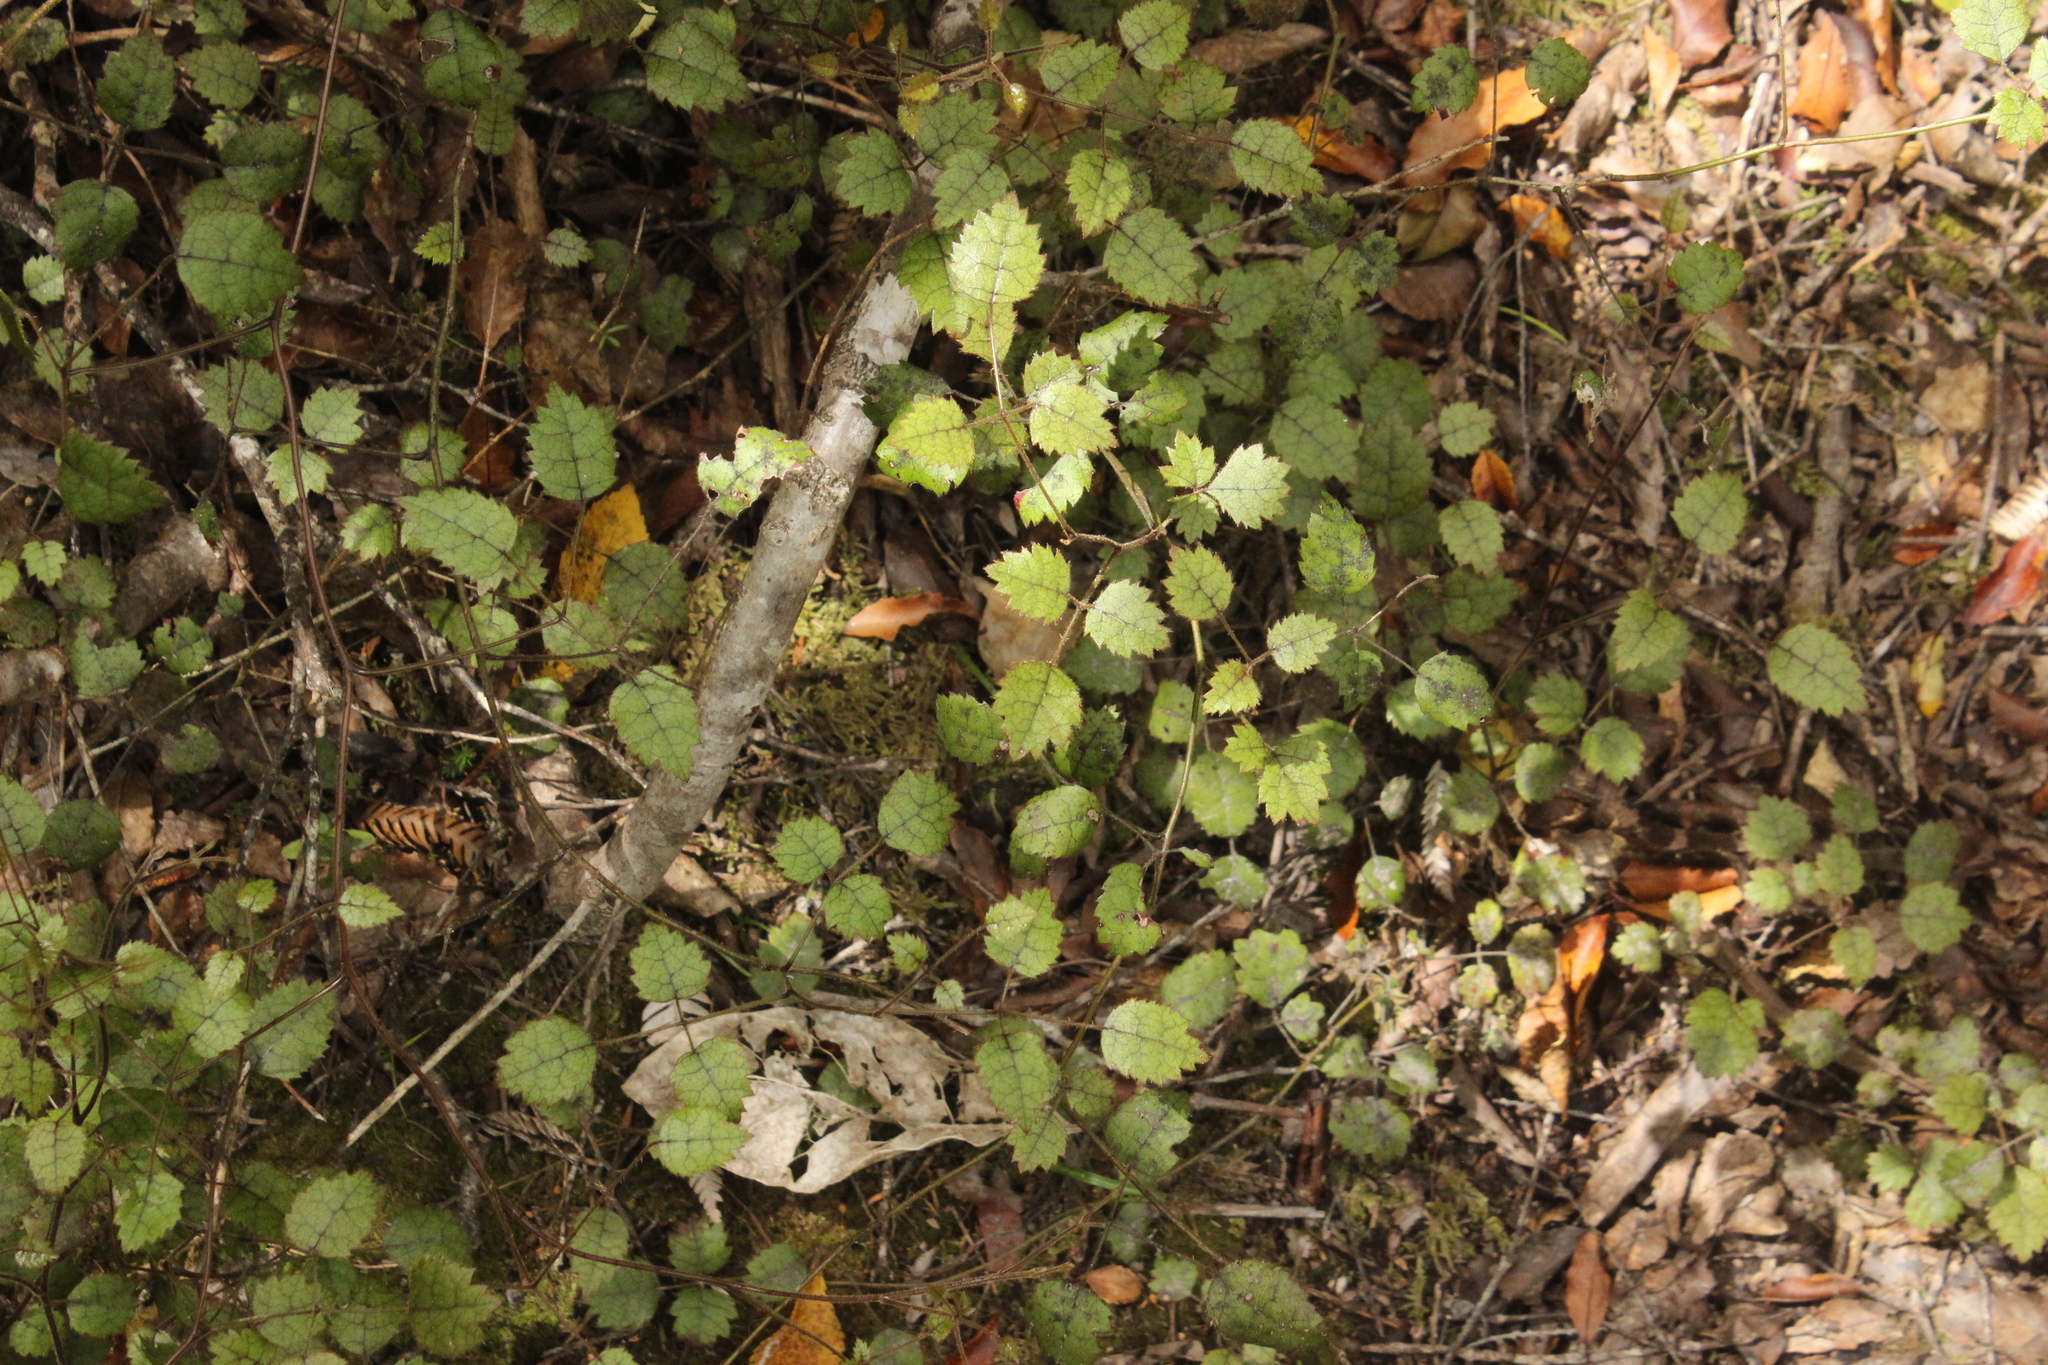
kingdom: Plantae
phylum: Tracheophyta
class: Magnoliopsida
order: Rosales
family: Rosaceae
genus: Rubus
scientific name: Rubus australis
